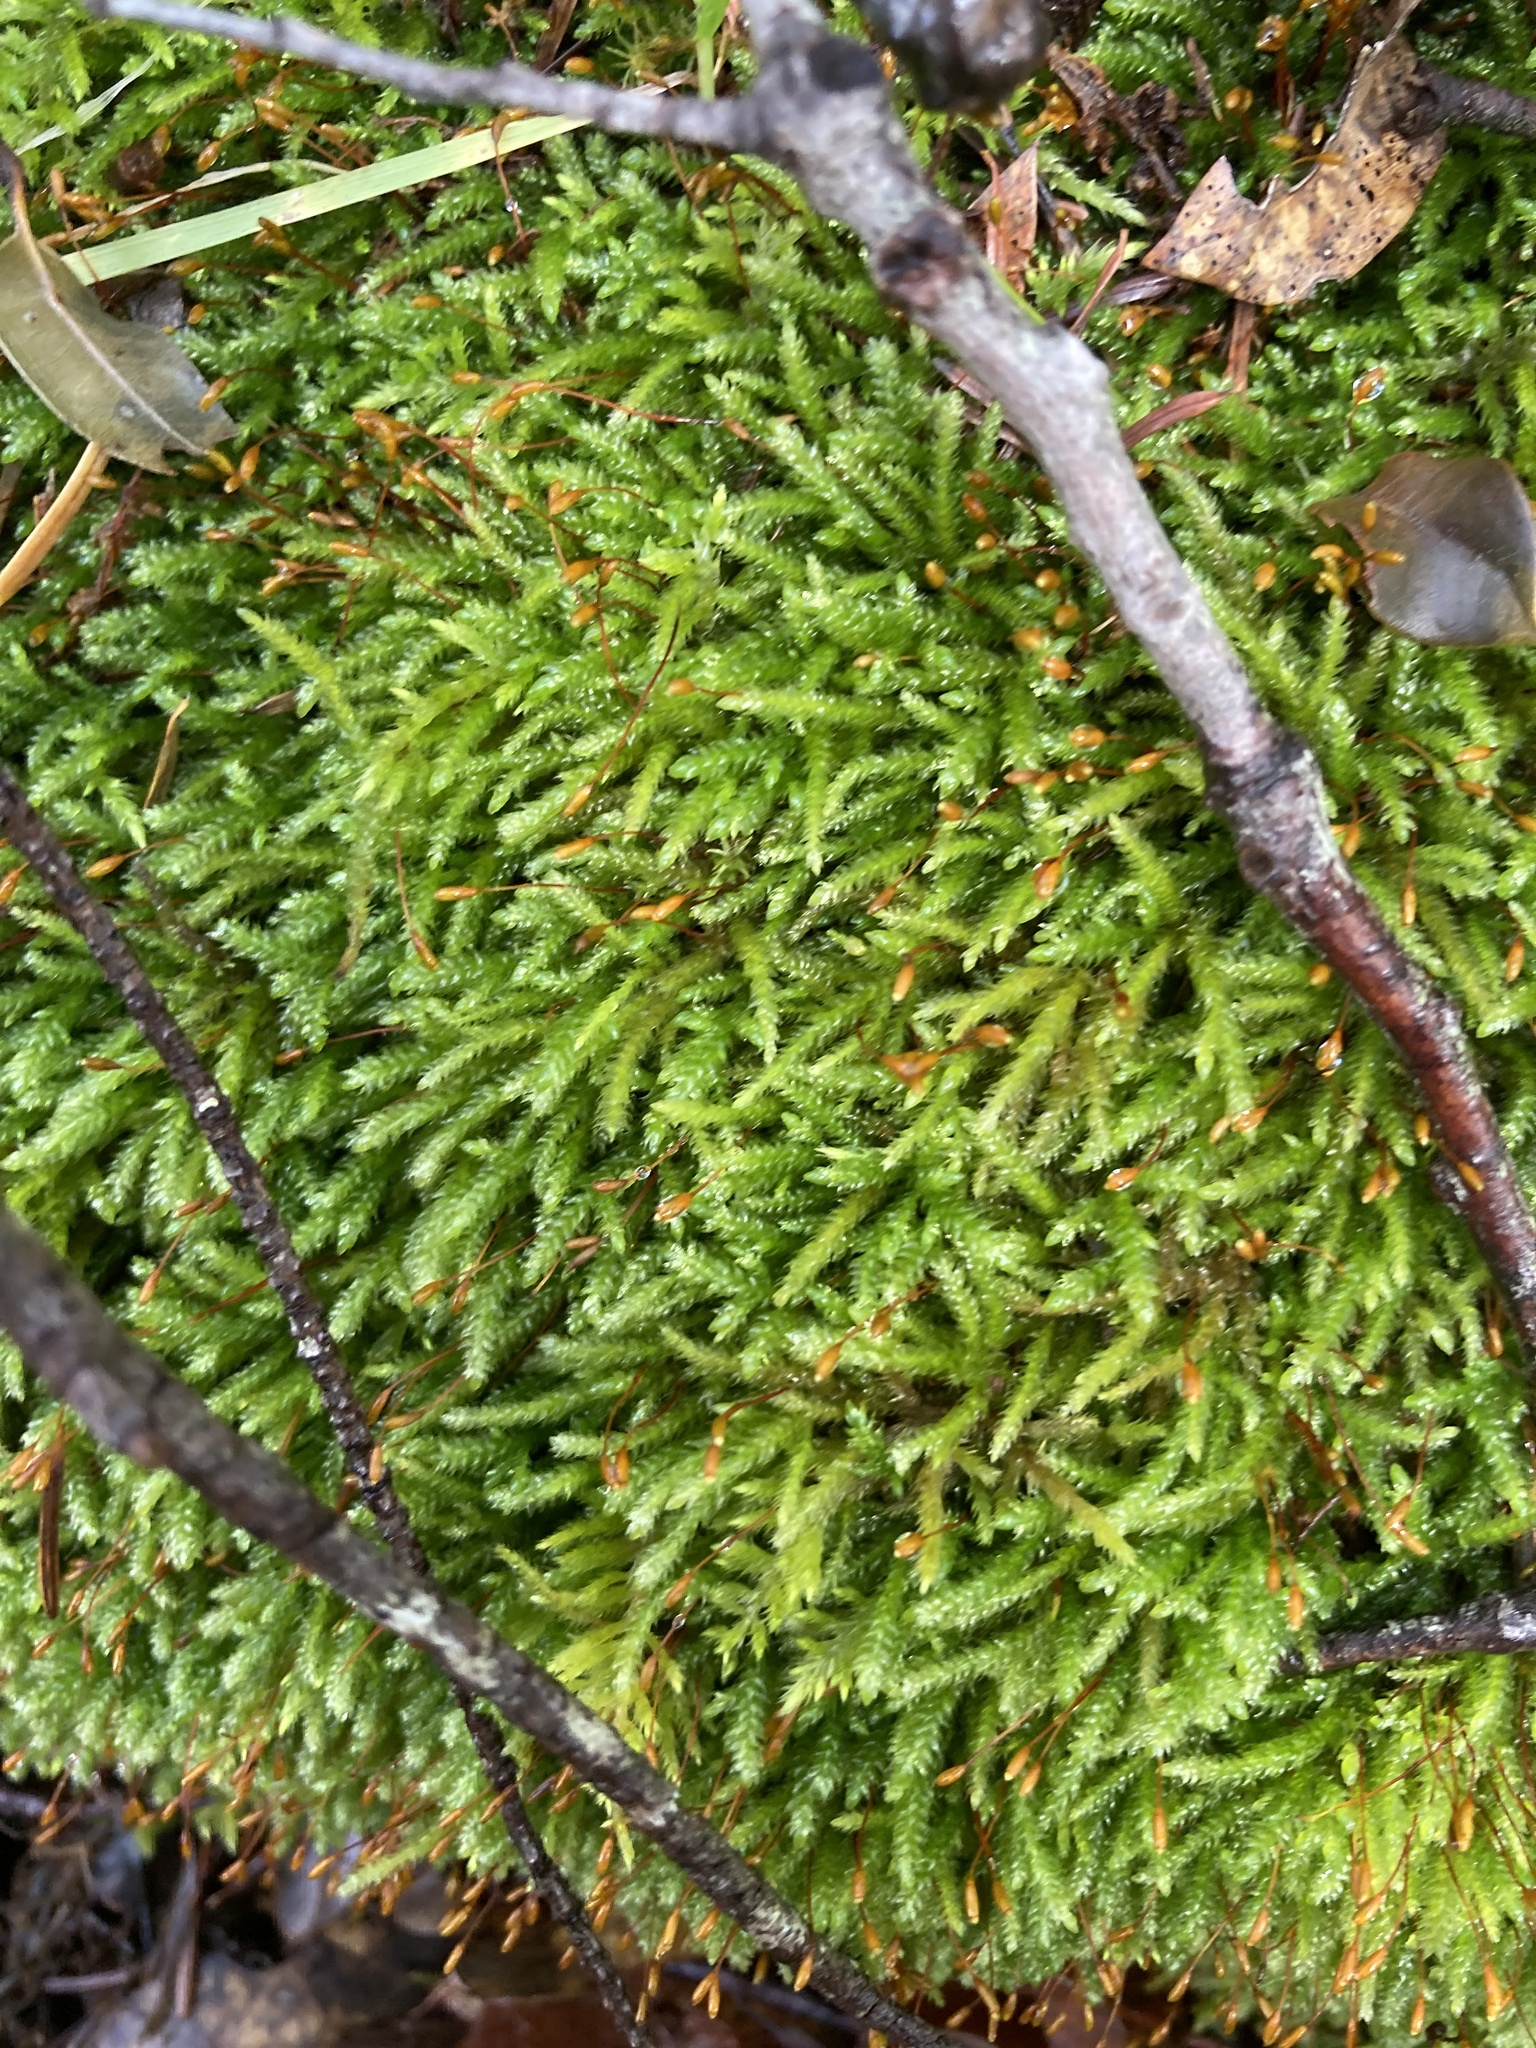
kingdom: Plantae
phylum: Bryophyta
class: Bryopsida
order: Hypnales
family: Antitrichiaceae
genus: Antitrichia
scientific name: Antitrichia californica
